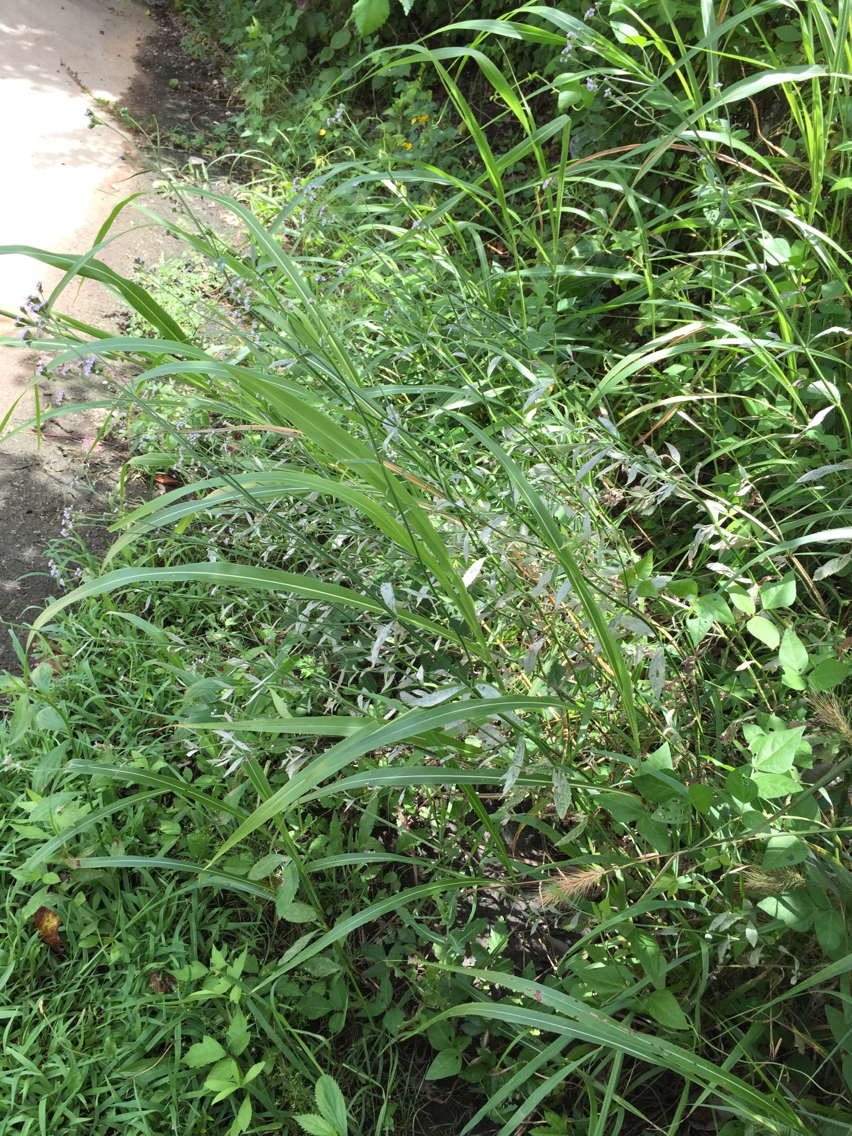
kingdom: Plantae
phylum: Tracheophyta
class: Magnoliopsida
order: Lamiales
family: Verbenaceae
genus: Verbena
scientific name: Verbena brasiliensis
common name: Brazilian vervain
